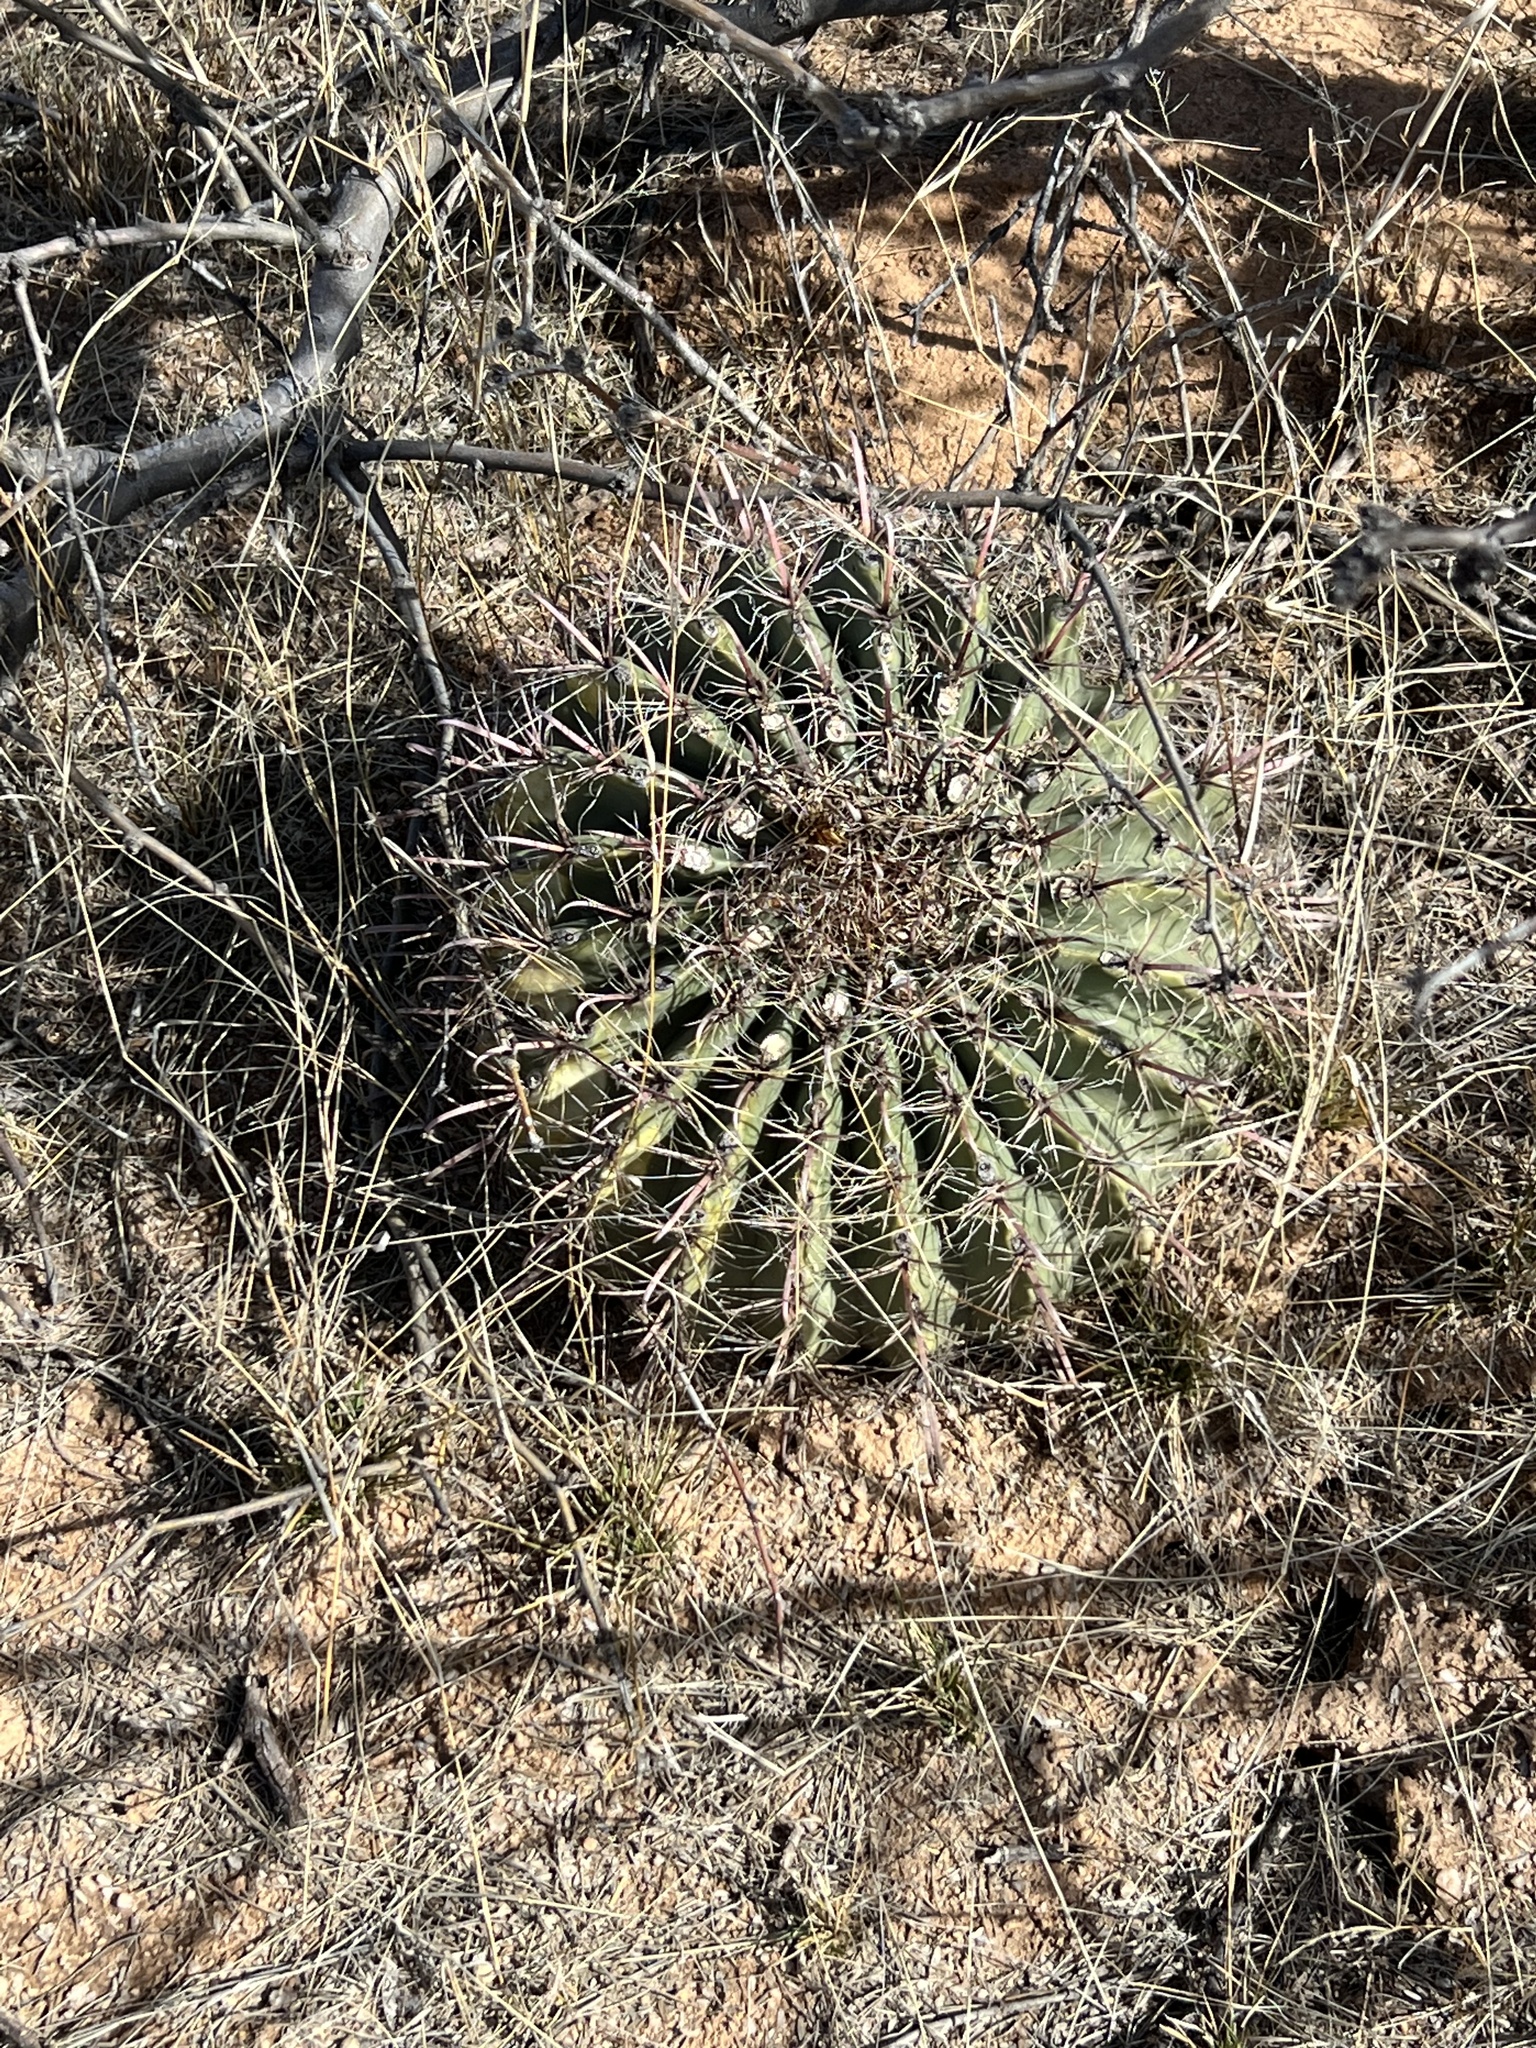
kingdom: Plantae
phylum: Tracheophyta
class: Magnoliopsida
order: Caryophyllales
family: Cactaceae
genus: Ferocactus
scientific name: Ferocactus wislizeni
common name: Candy barrel cactus
